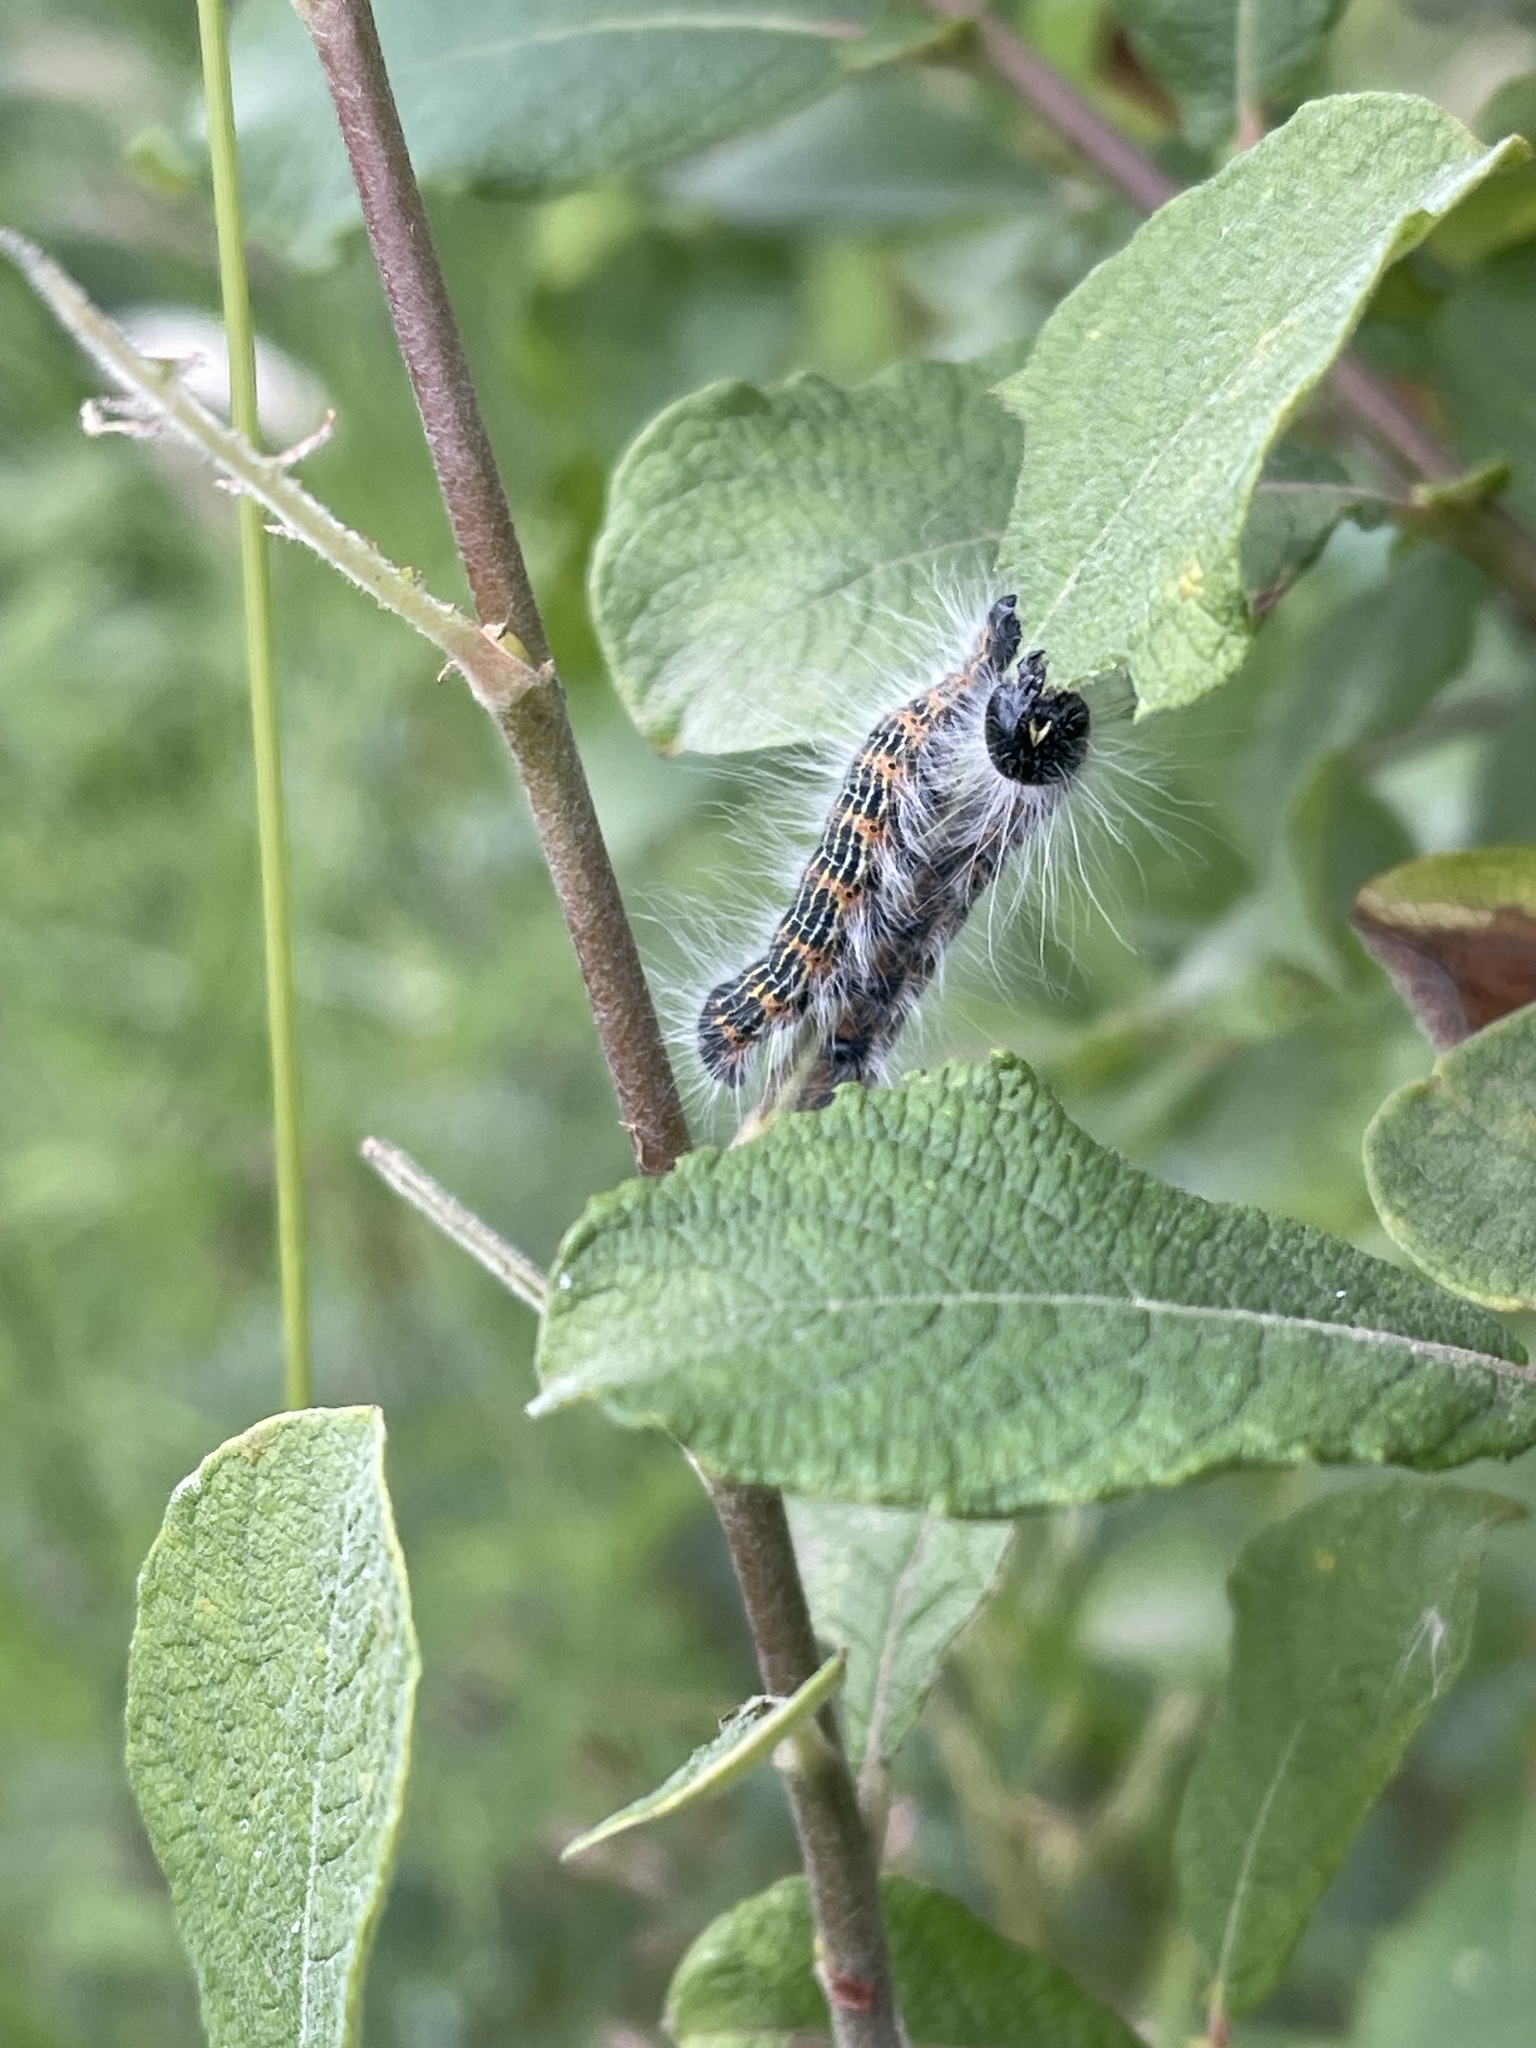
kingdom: Animalia
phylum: Arthropoda
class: Insecta
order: Lepidoptera
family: Notodontidae
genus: Phalera
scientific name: Phalera bucephala
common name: Buff-tip
